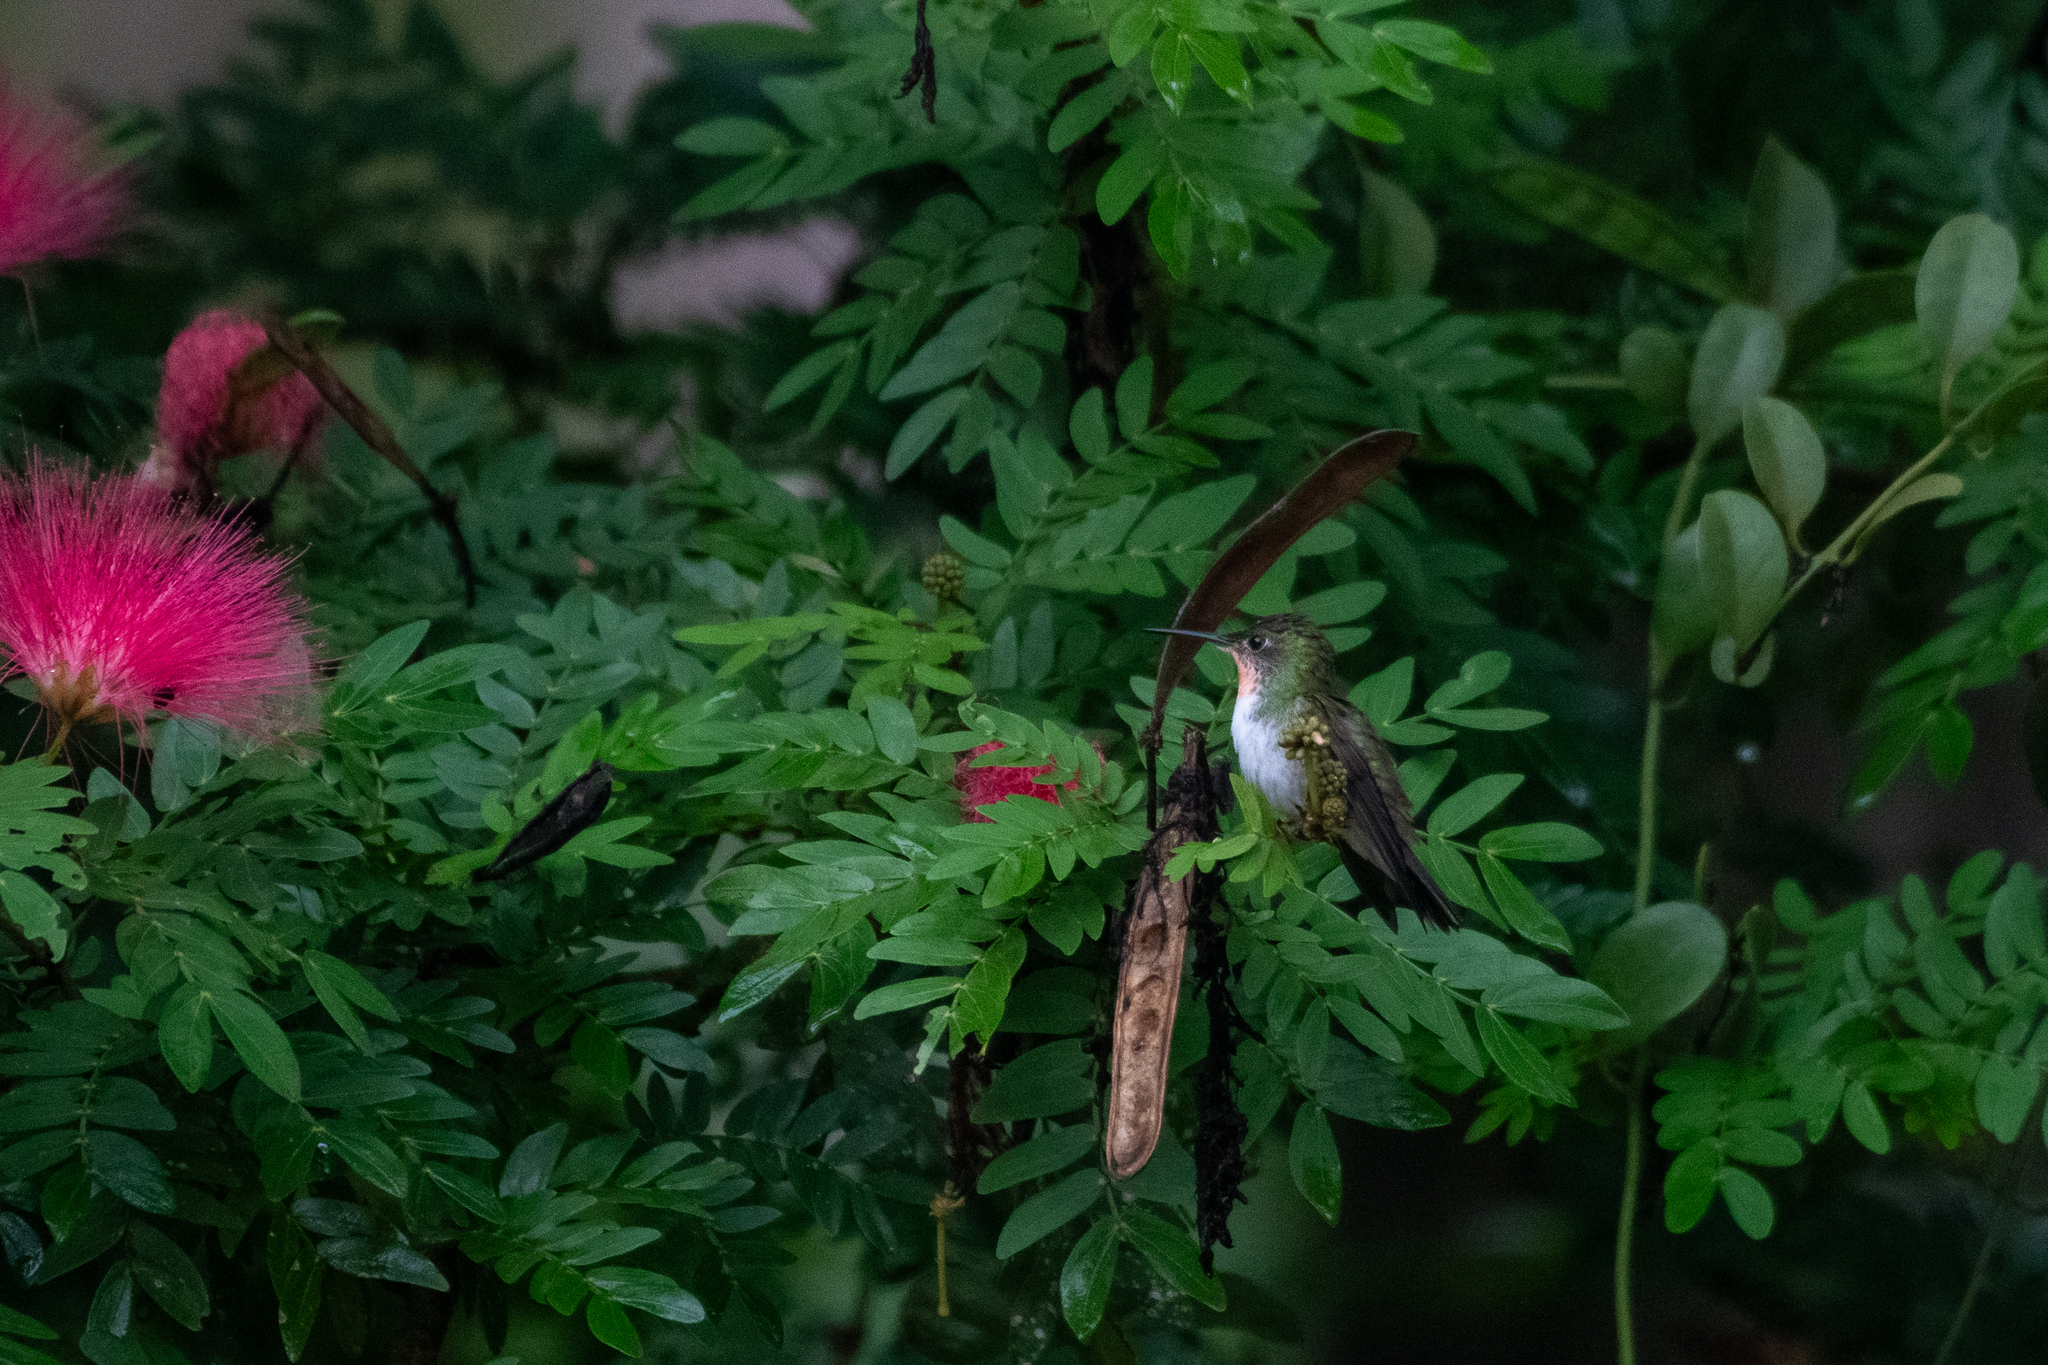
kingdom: Animalia
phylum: Chordata
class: Aves
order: Apodiformes
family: Trochilidae
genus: Chlorestes
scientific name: Chlorestes candida
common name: White-bellied emerald
